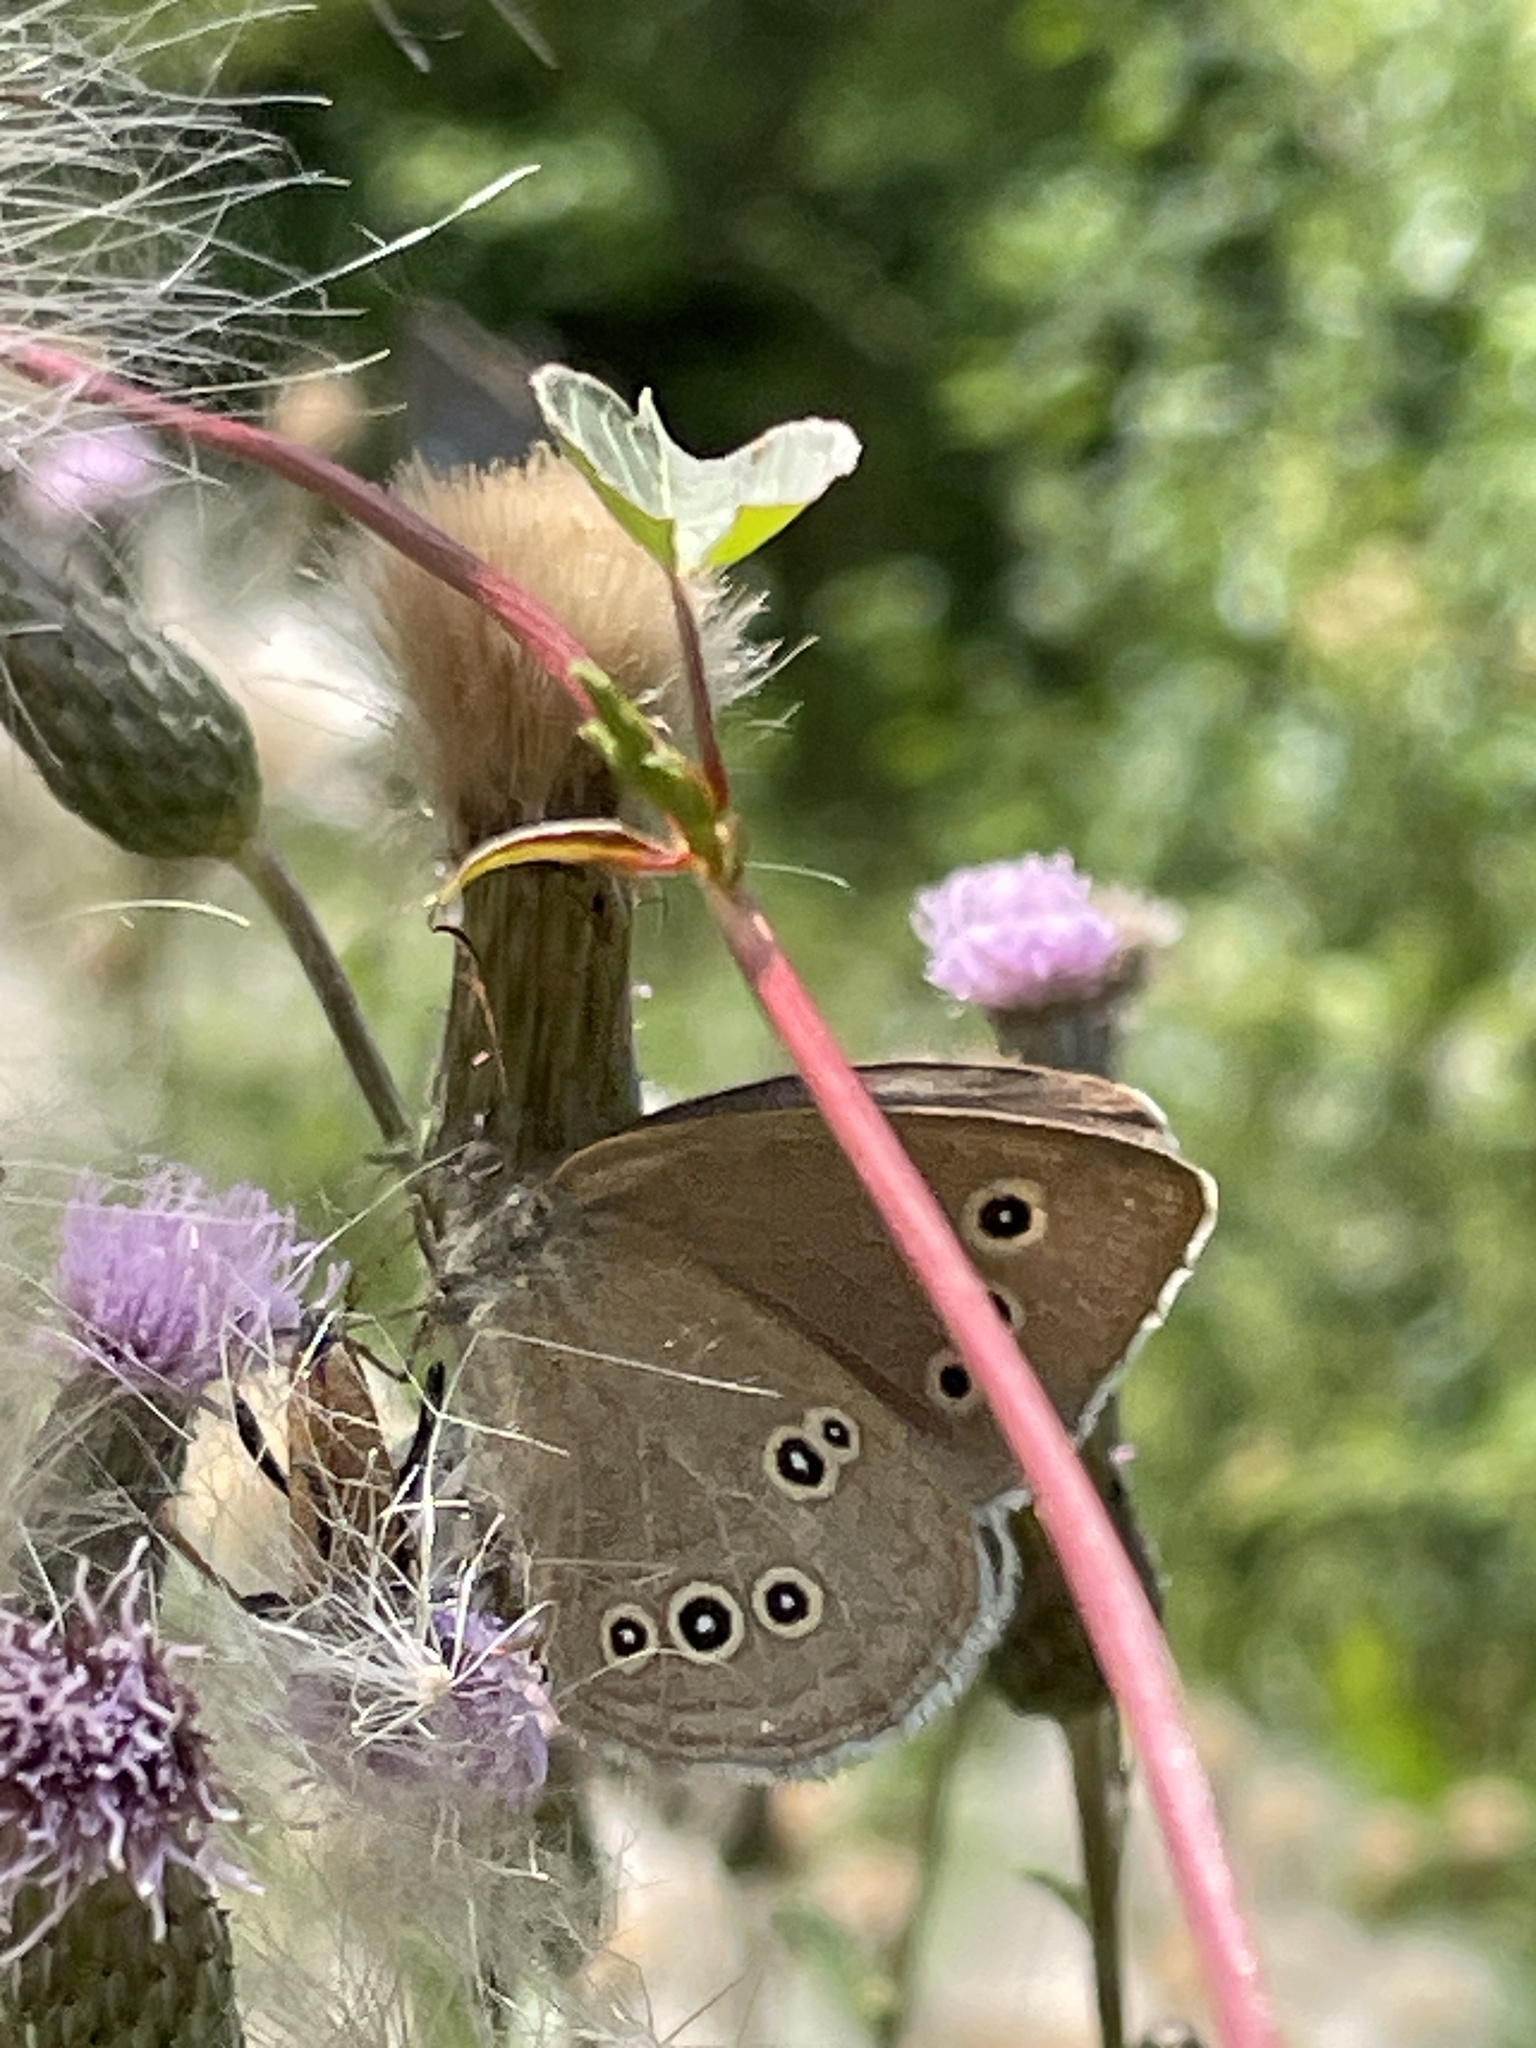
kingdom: Animalia
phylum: Arthropoda
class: Insecta
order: Lepidoptera
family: Nymphalidae
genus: Aphantopus
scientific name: Aphantopus hyperantus
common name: Ringlet
